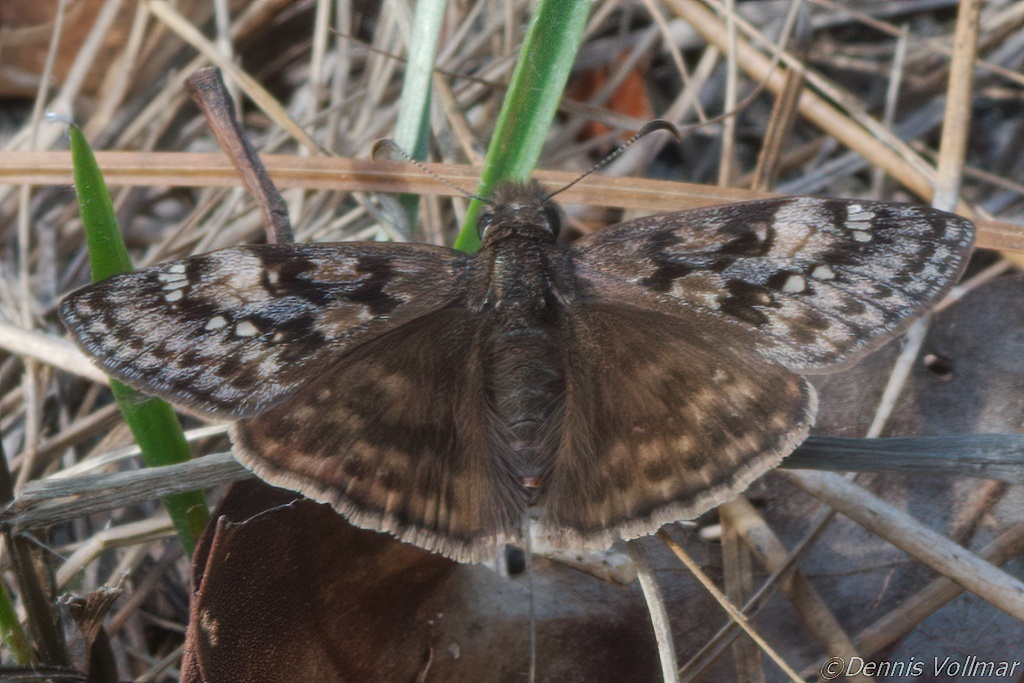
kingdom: Animalia
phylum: Arthropoda
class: Insecta
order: Lepidoptera
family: Hesperiidae
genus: Erynnis
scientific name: Erynnis juvenalis
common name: Juvenal's duskywing
